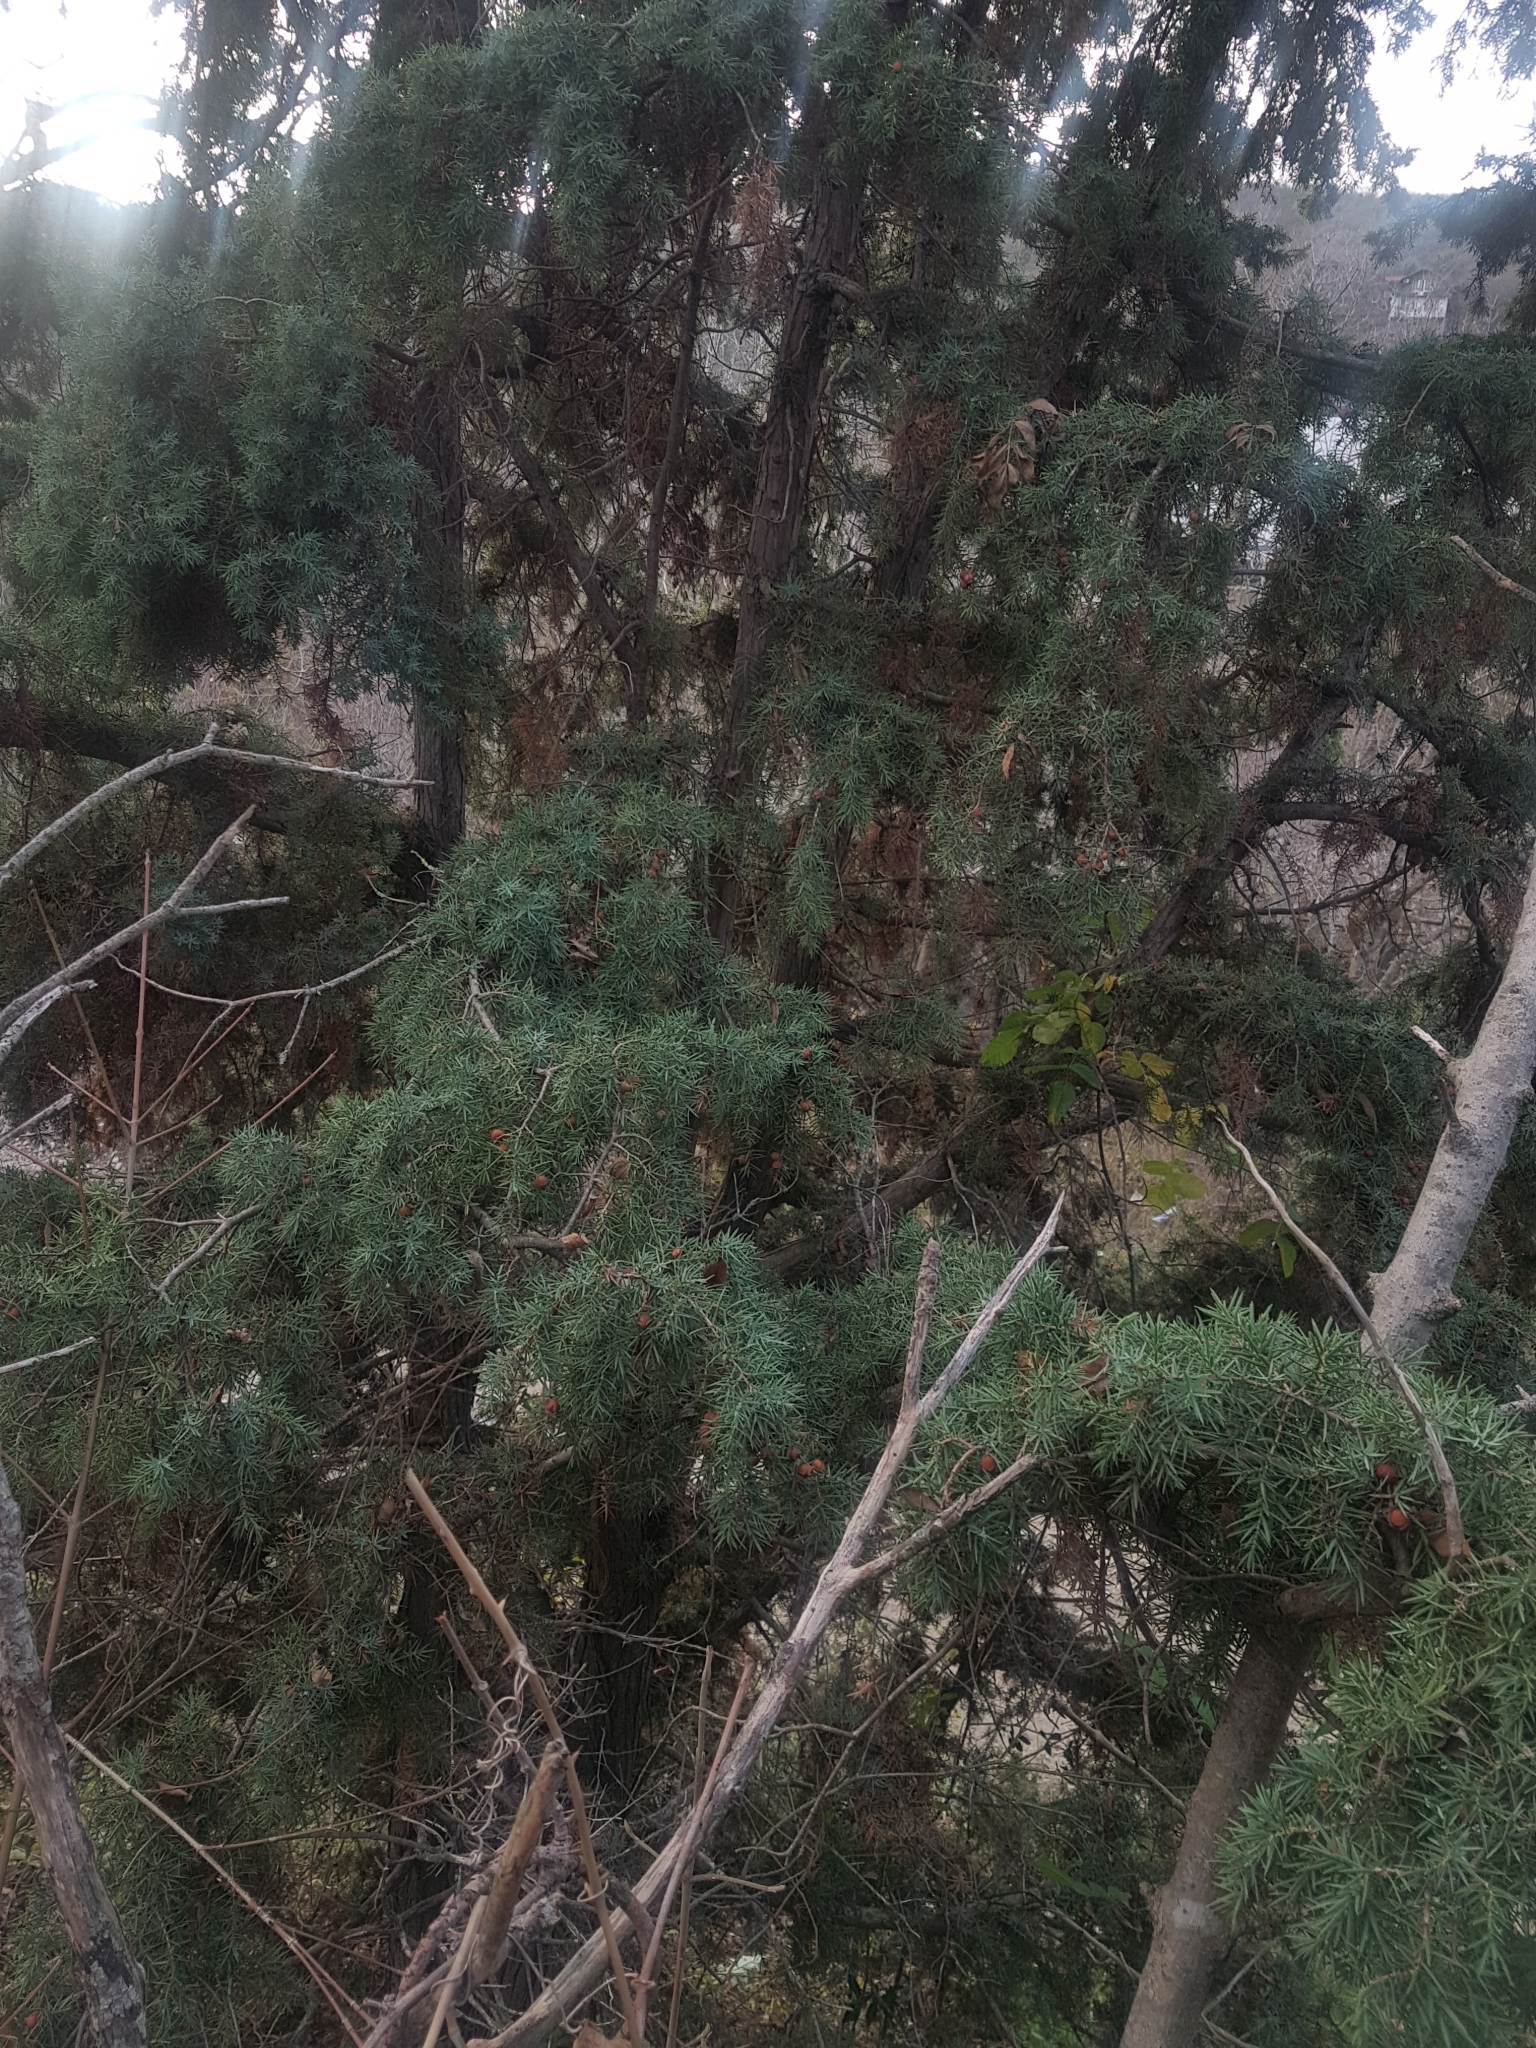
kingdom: Plantae
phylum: Tracheophyta
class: Pinopsida
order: Pinales
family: Cupressaceae
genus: Juniperus
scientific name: Juniperus oxycedrus
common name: Prickly juniper
